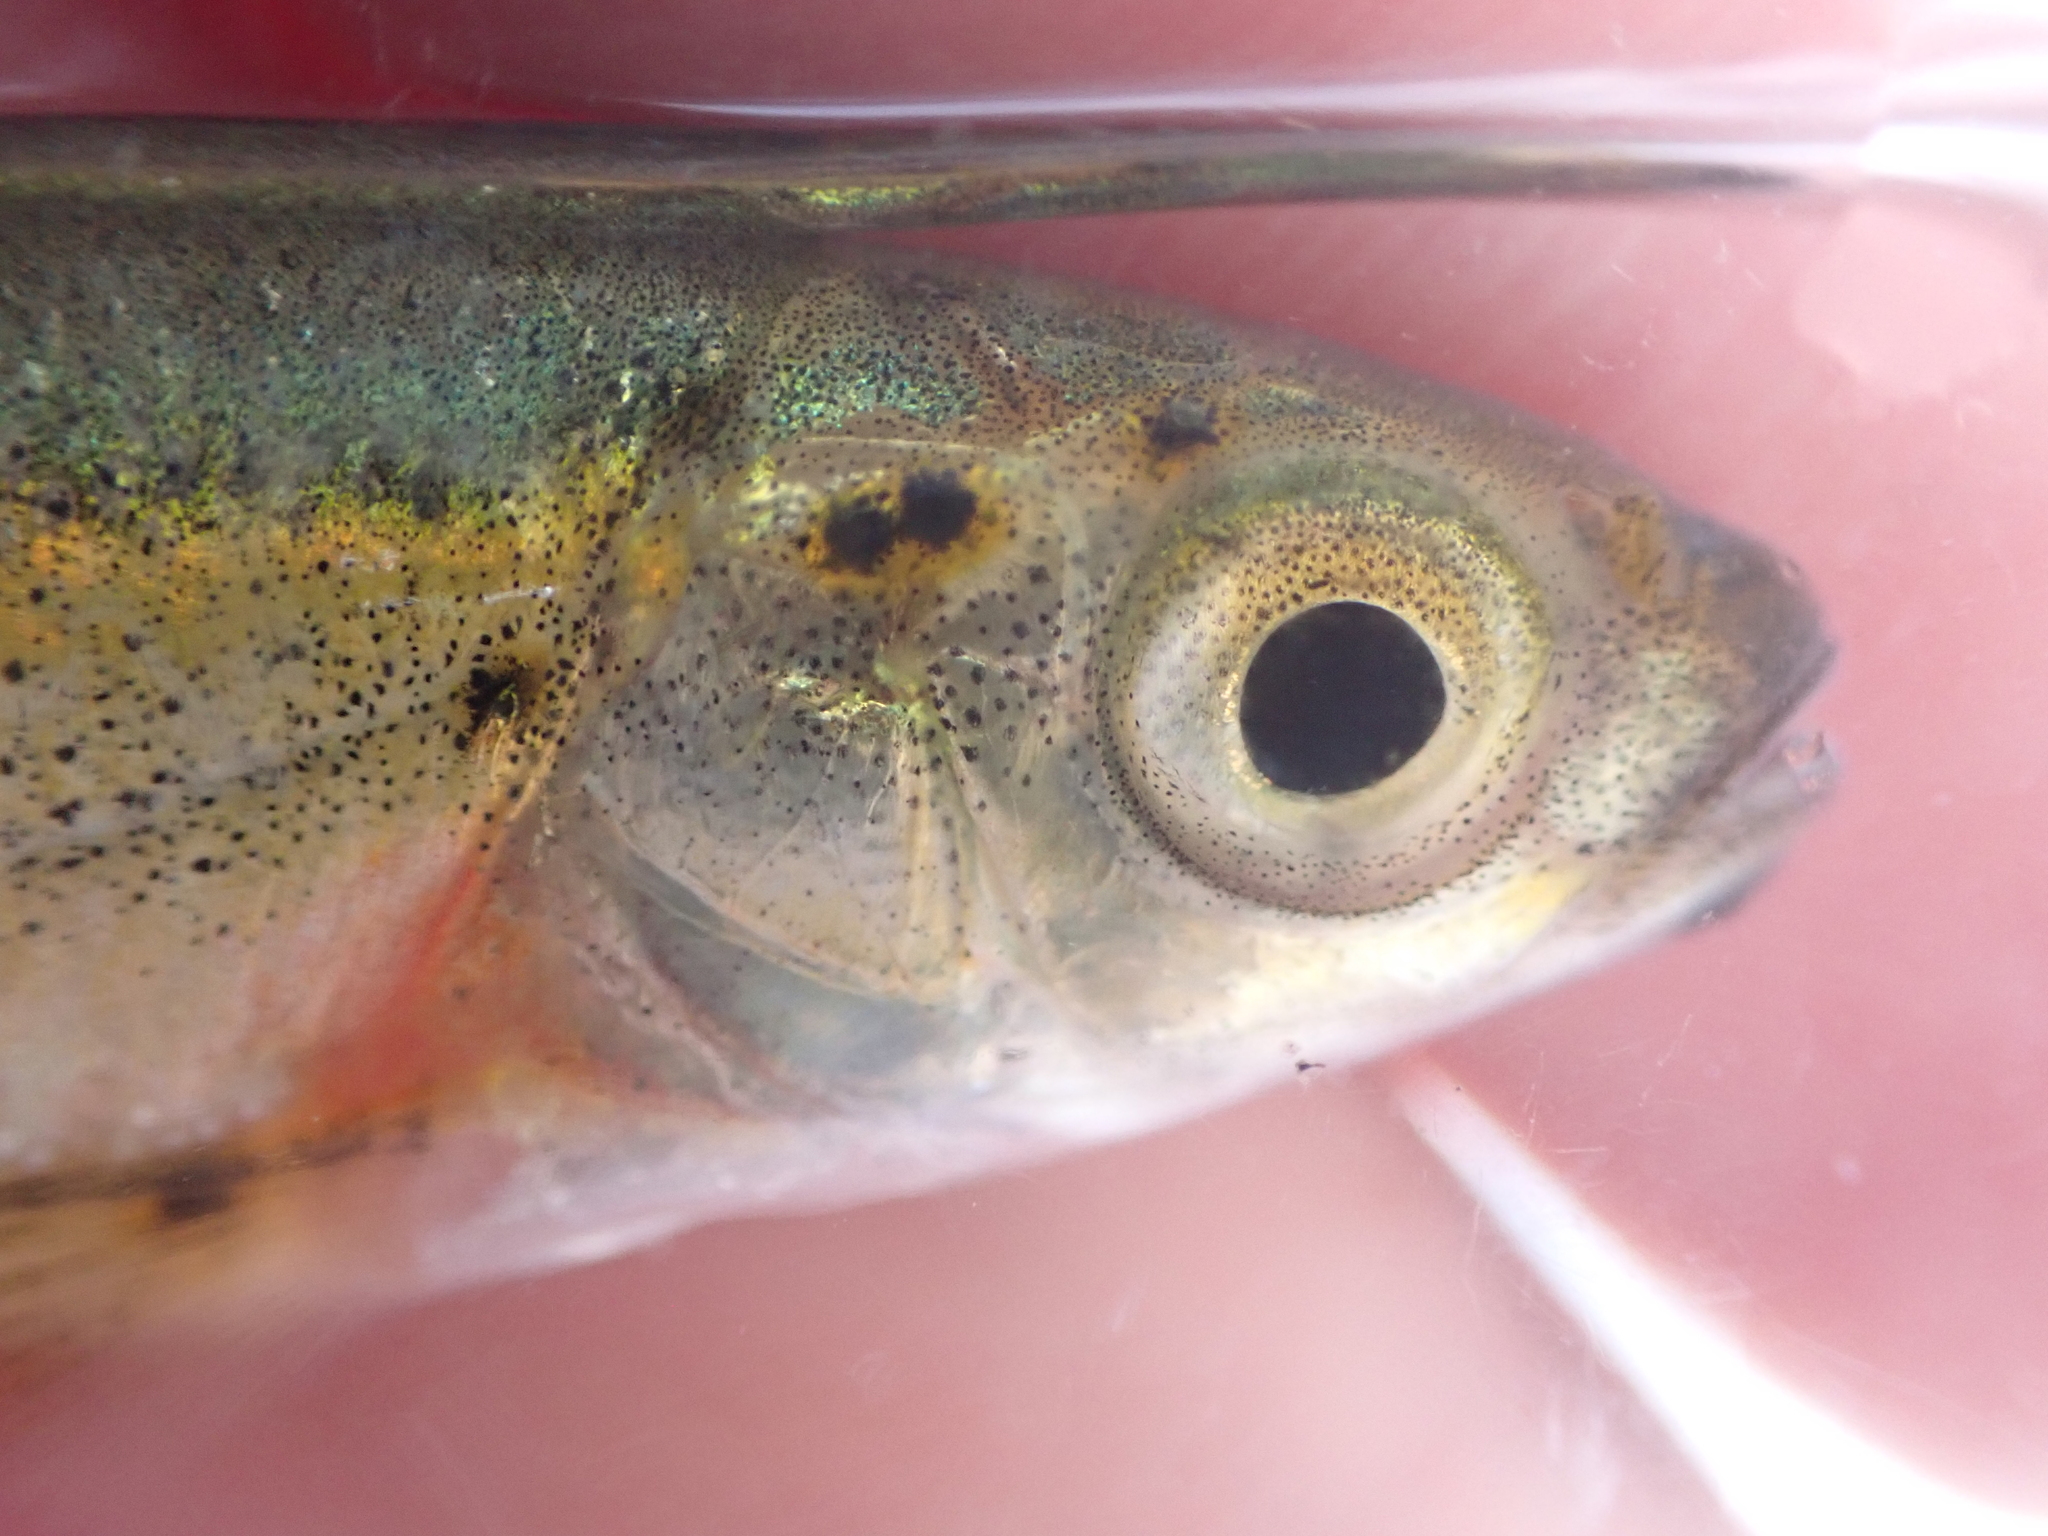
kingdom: Animalia
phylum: Platyhelminthes
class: Trematoda
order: Diplostomida
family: Diplostomidae
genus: Neascus
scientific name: Neascus
